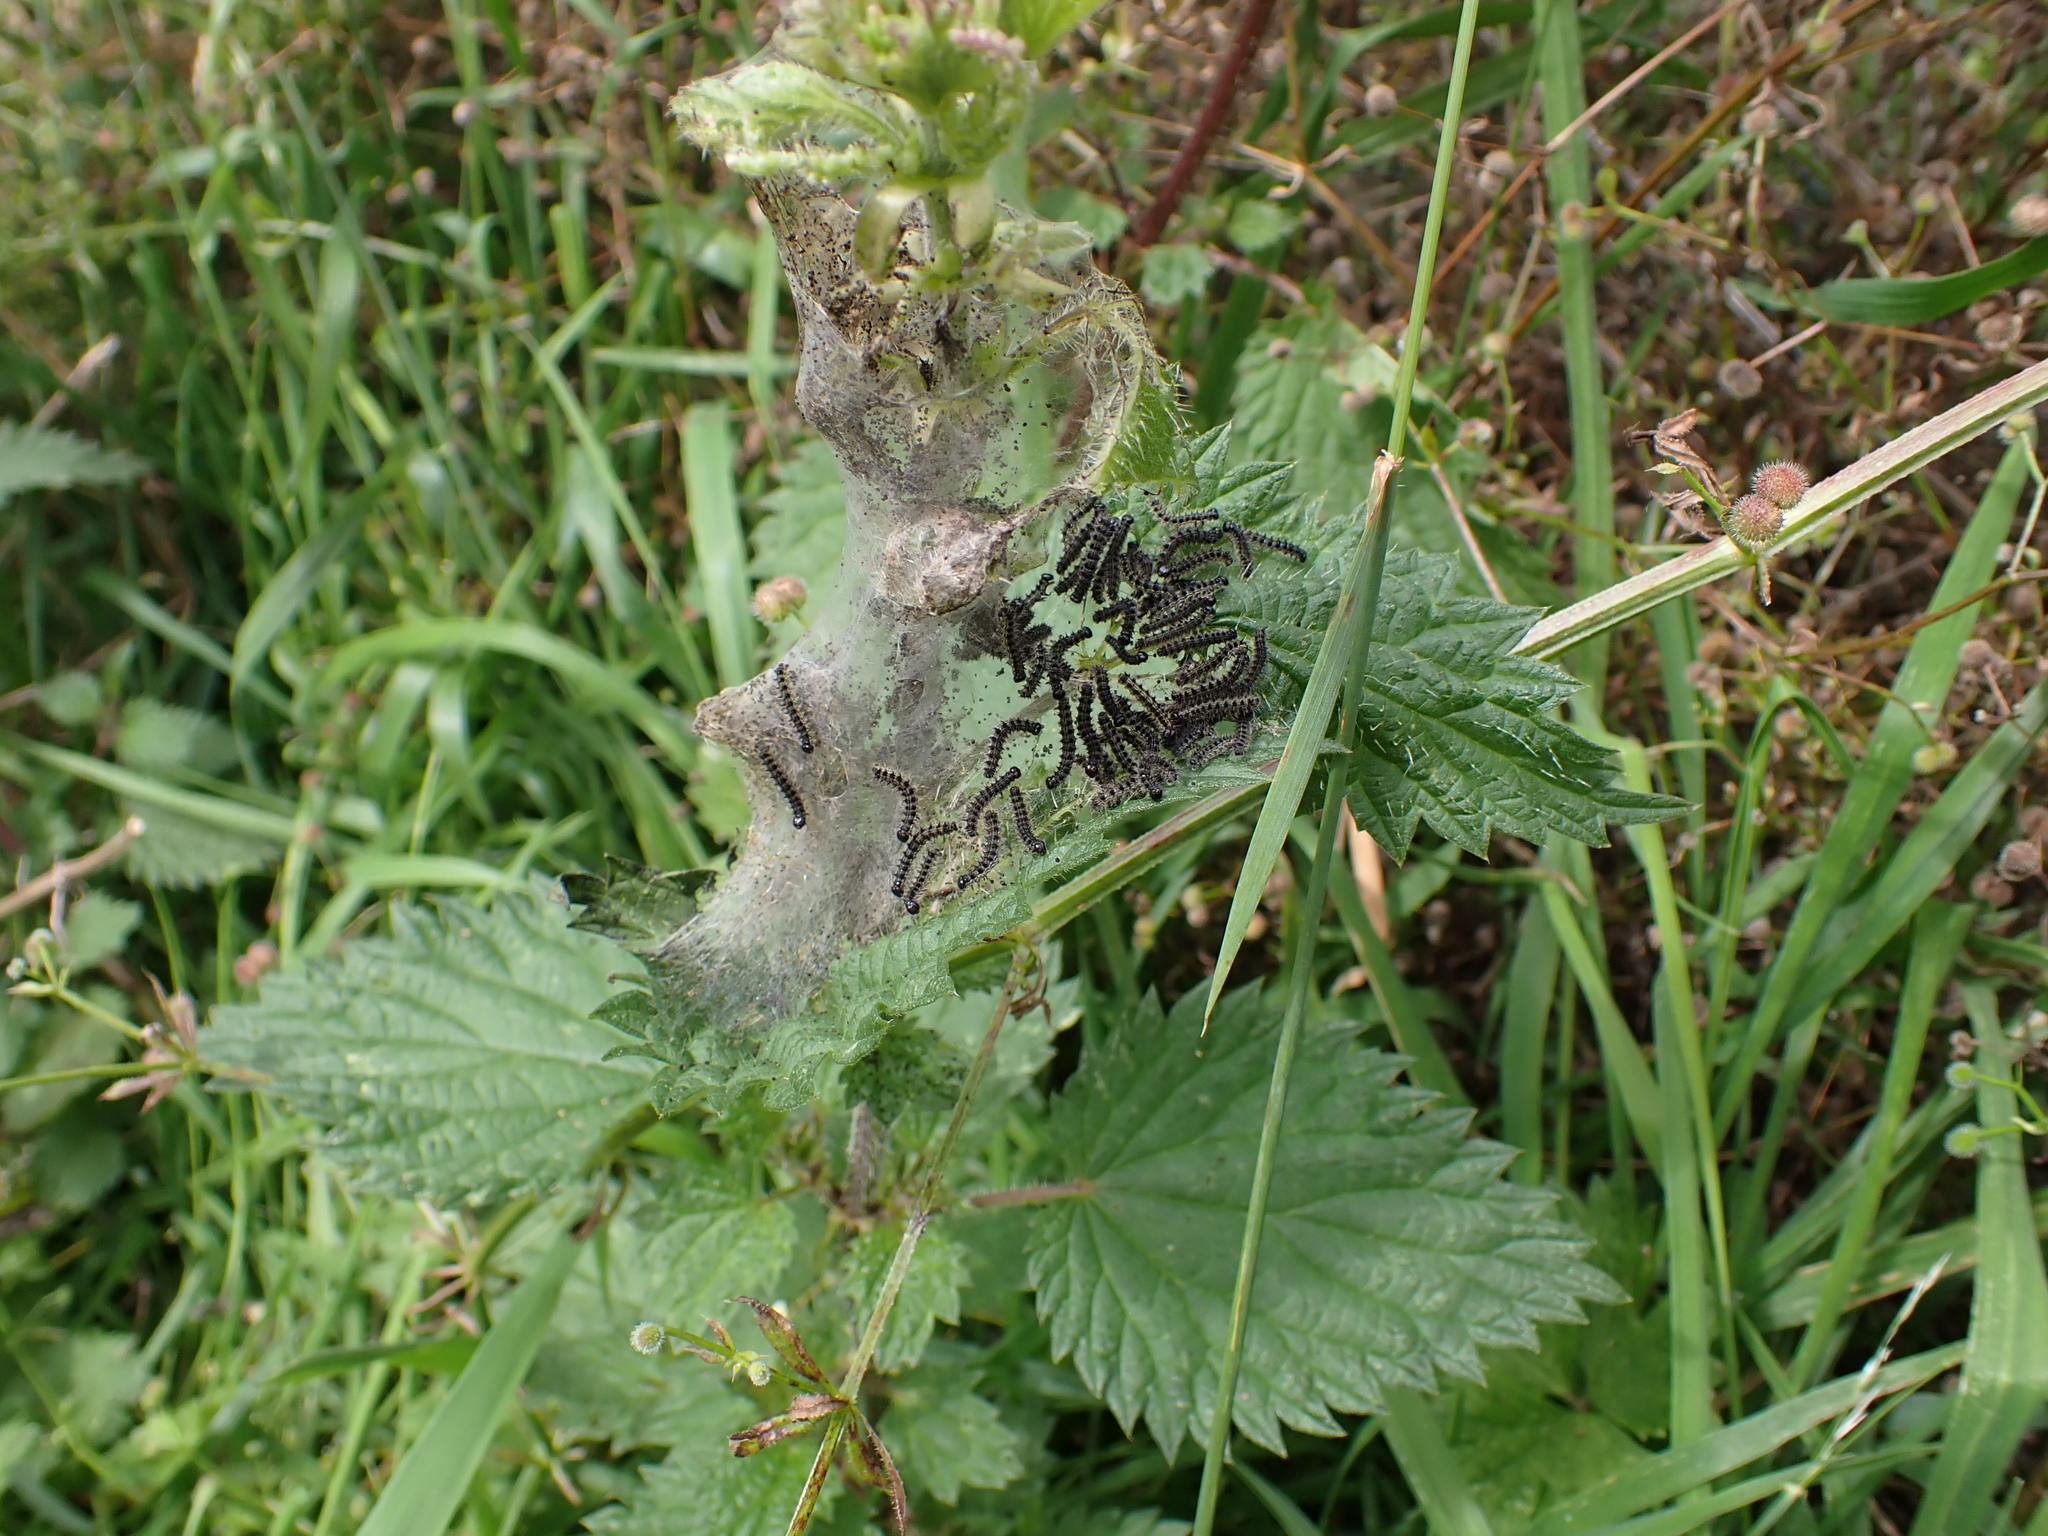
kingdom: Plantae
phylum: Tracheophyta
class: Magnoliopsida
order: Rosales
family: Urticaceae
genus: Urtica
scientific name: Urtica dioica
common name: Common nettle
